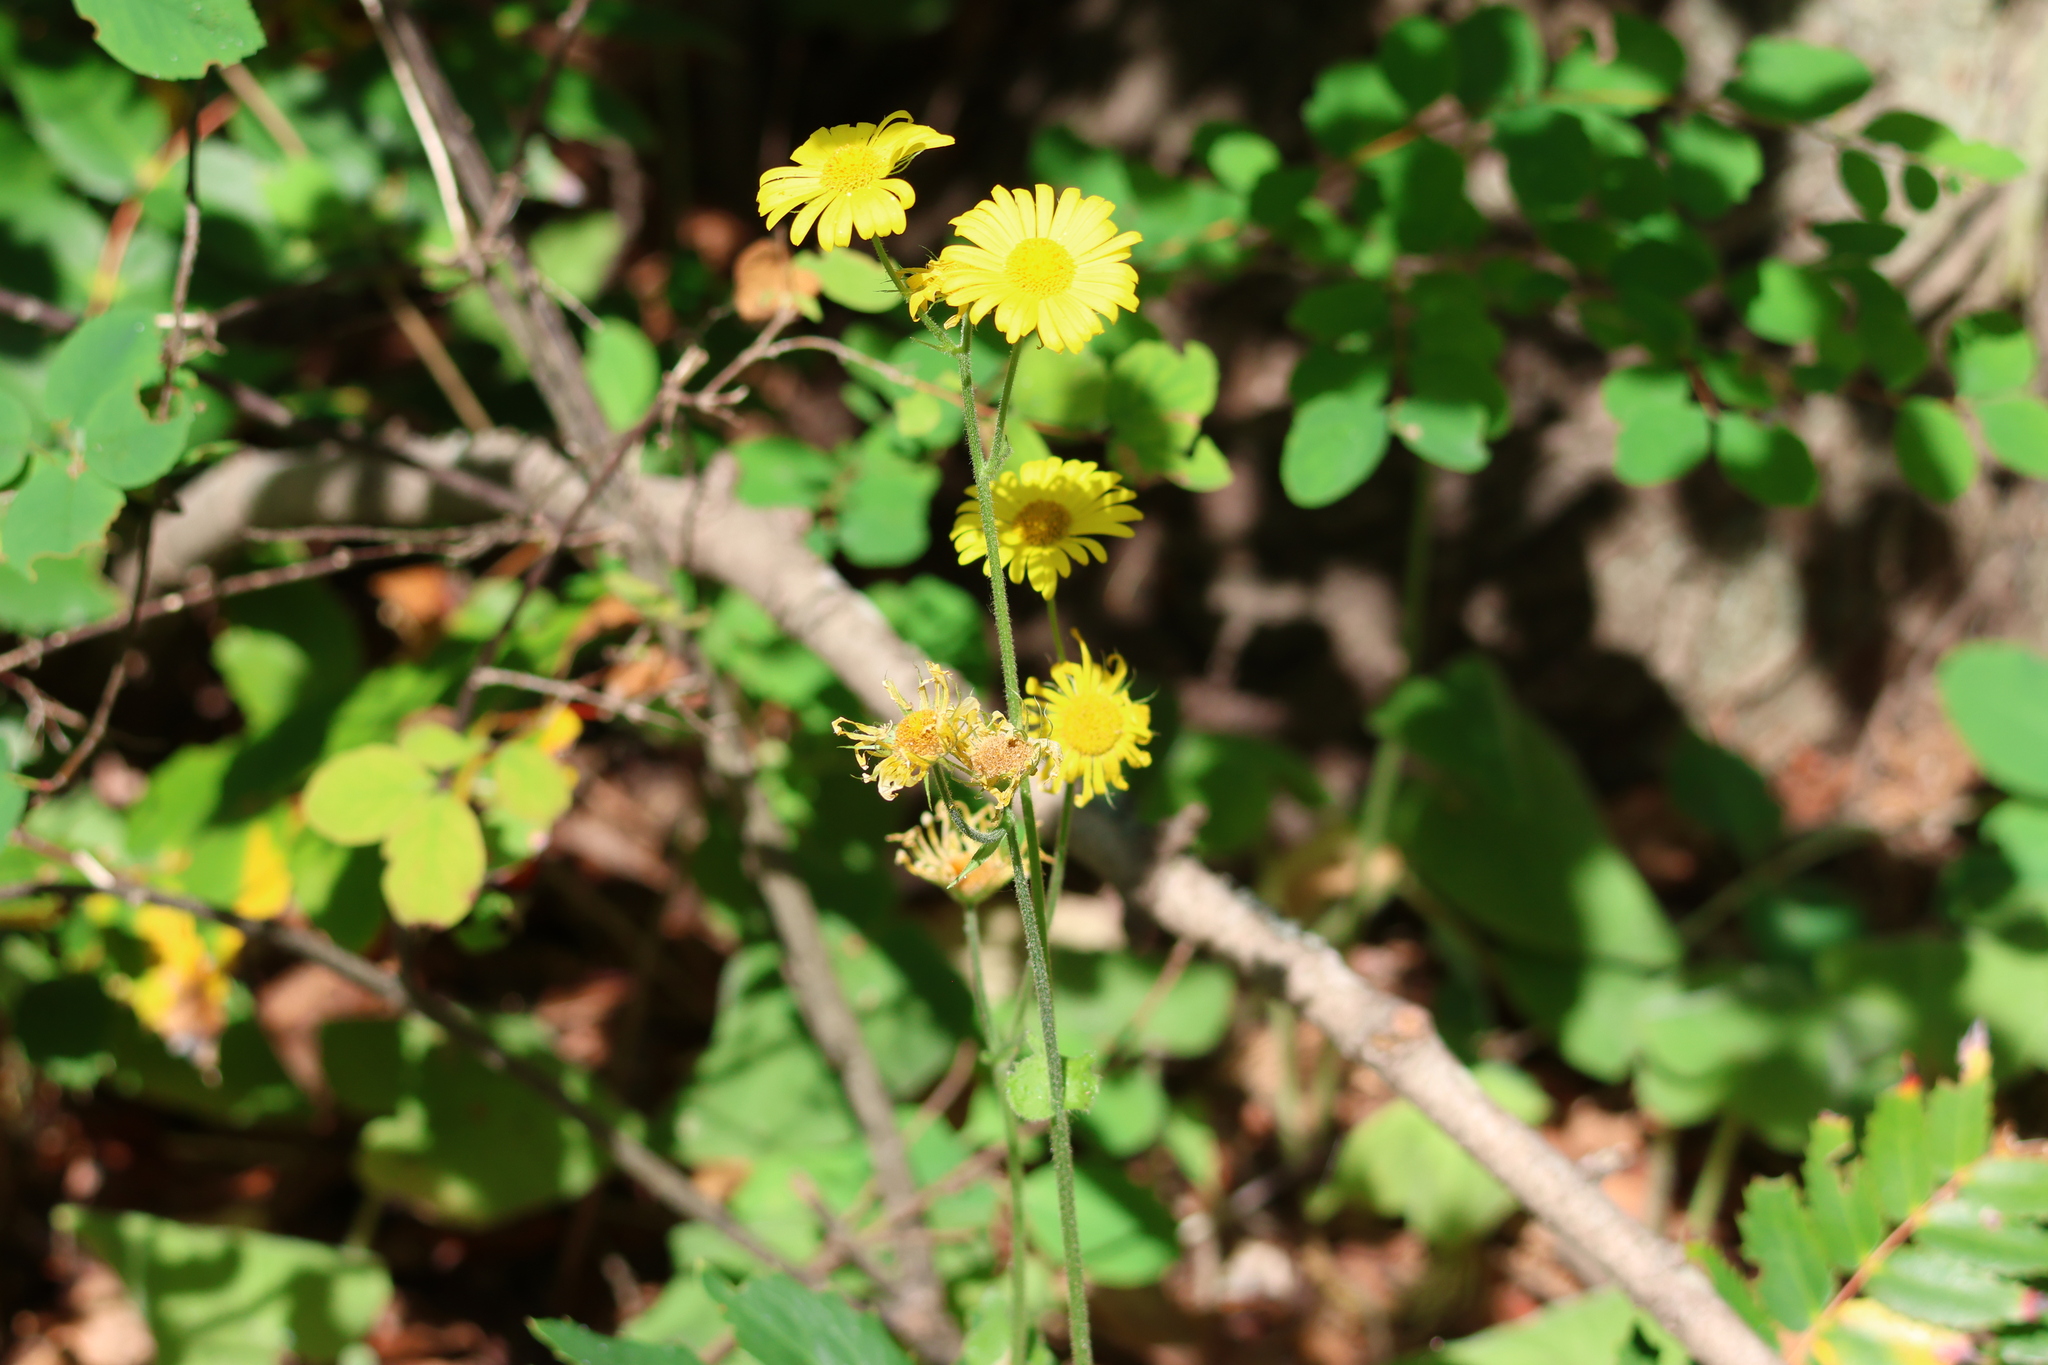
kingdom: Plantae
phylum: Tracheophyta
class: Magnoliopsida
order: Asterales
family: Asteraceae
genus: Doronicum
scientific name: Doronicum pardalianches
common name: Leopard's-bane
